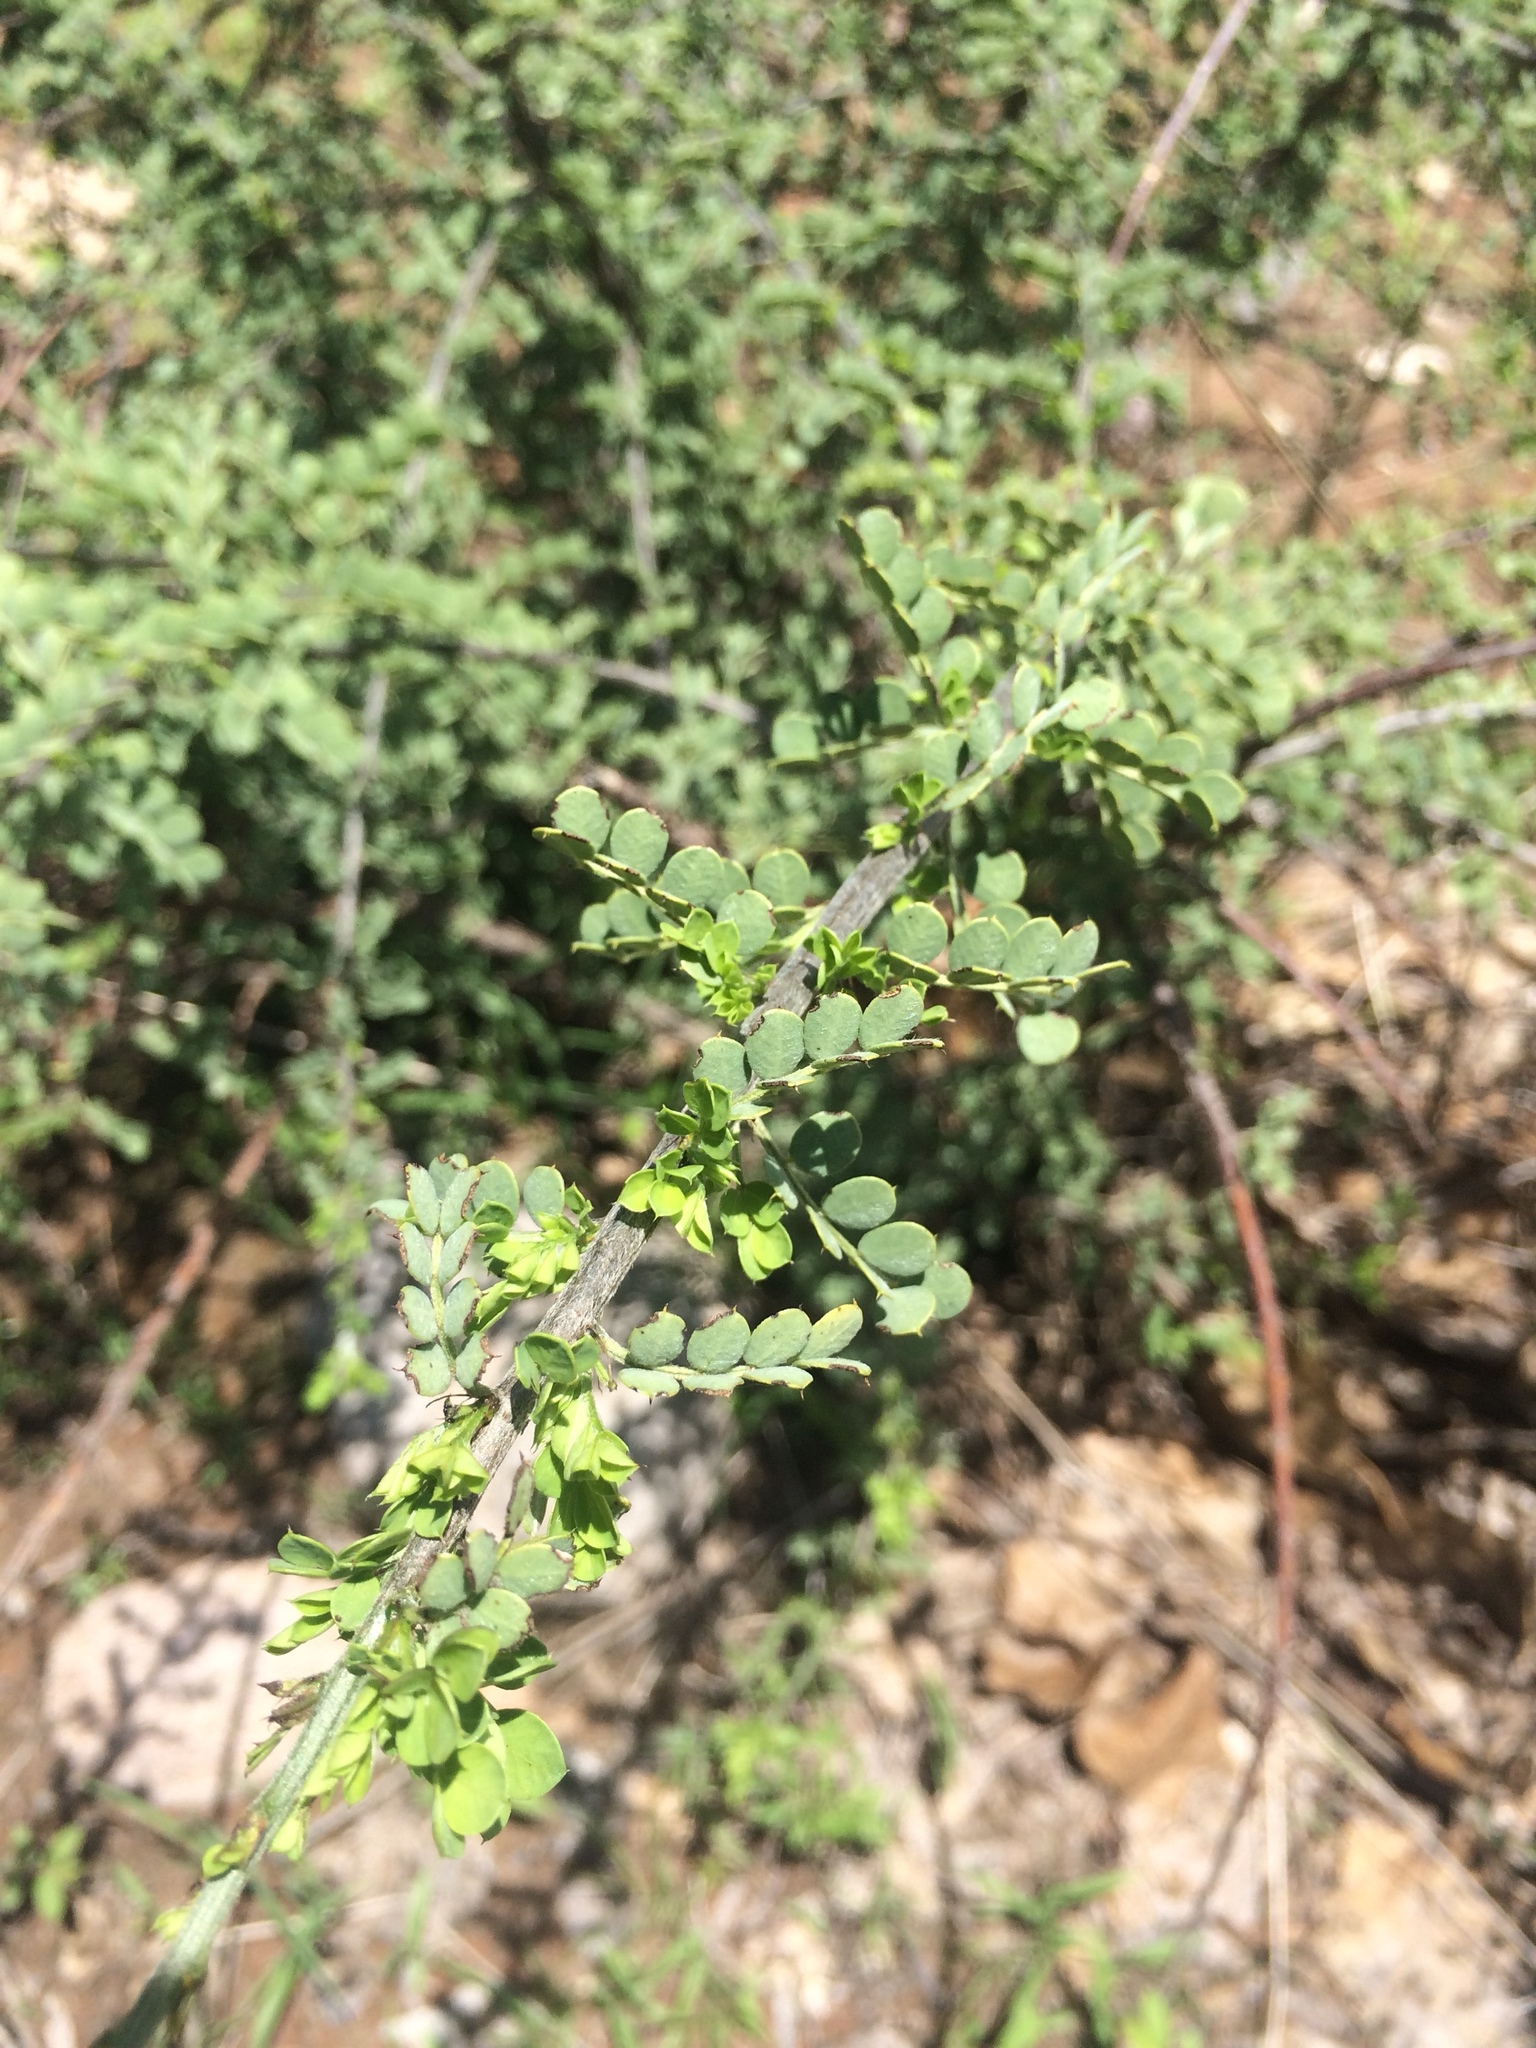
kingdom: Plantae
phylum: Tracheophyta
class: Magnoliopsida
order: Fabales
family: Fabaceae
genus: Senegalia
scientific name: Senegalia greggii
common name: Texas-mimosa
